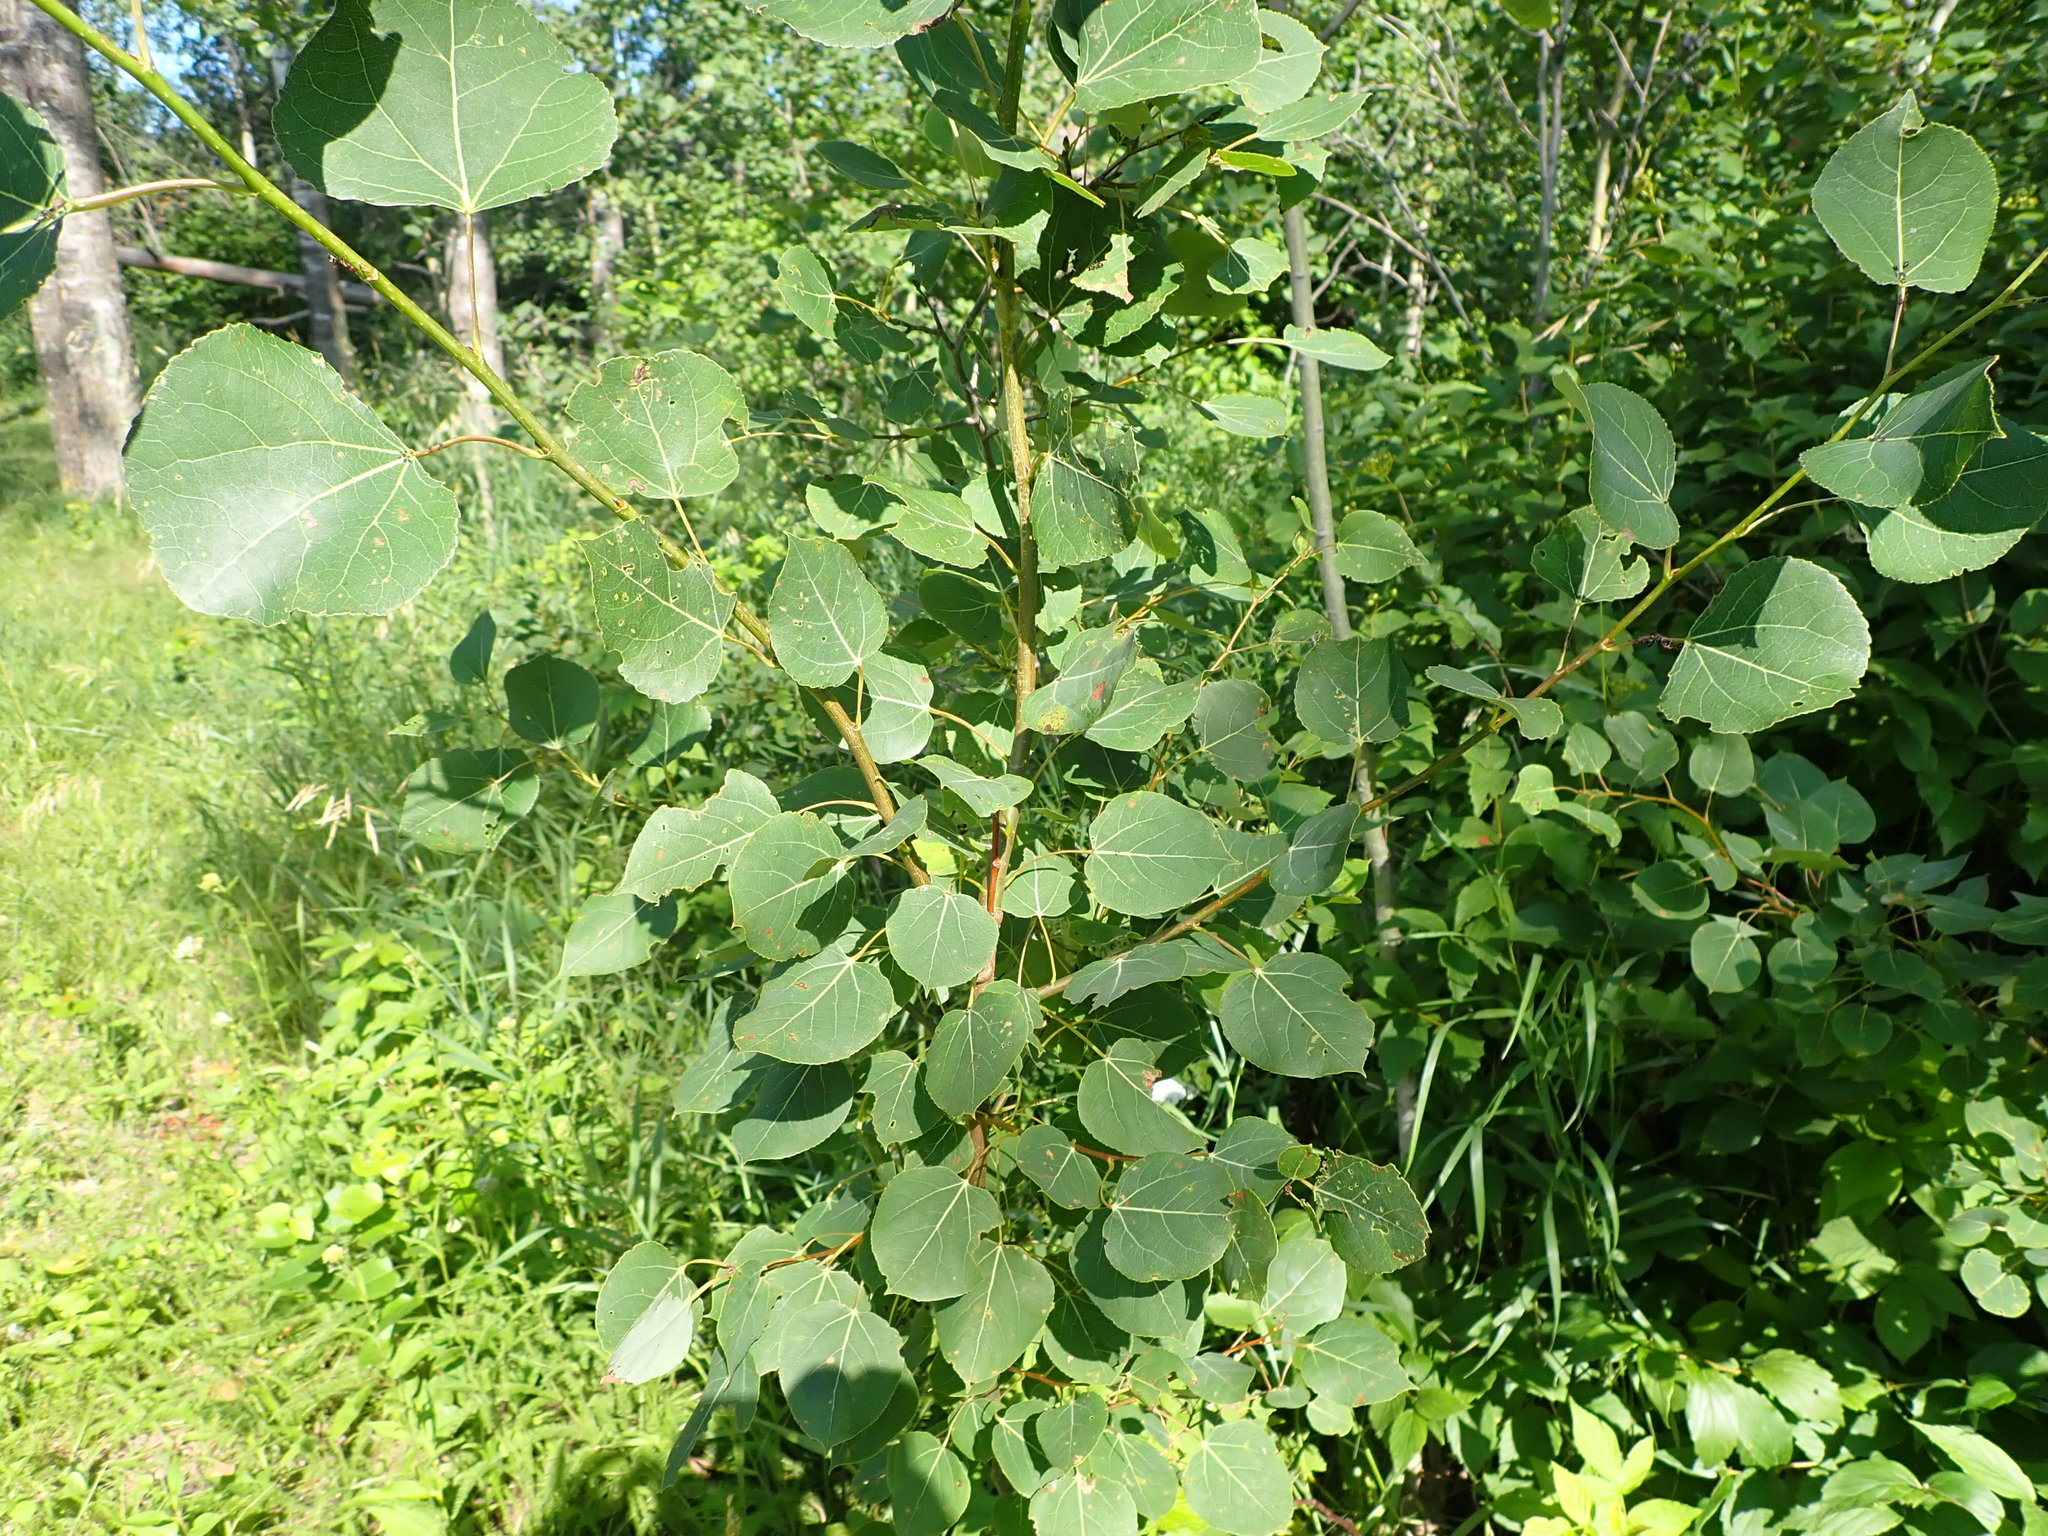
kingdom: Plantae
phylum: Tracheophyta
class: Magnoliopsida
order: Malpighiales
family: Salicaceae
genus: Populus
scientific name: Populus tremuloides
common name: Quaking aspen
